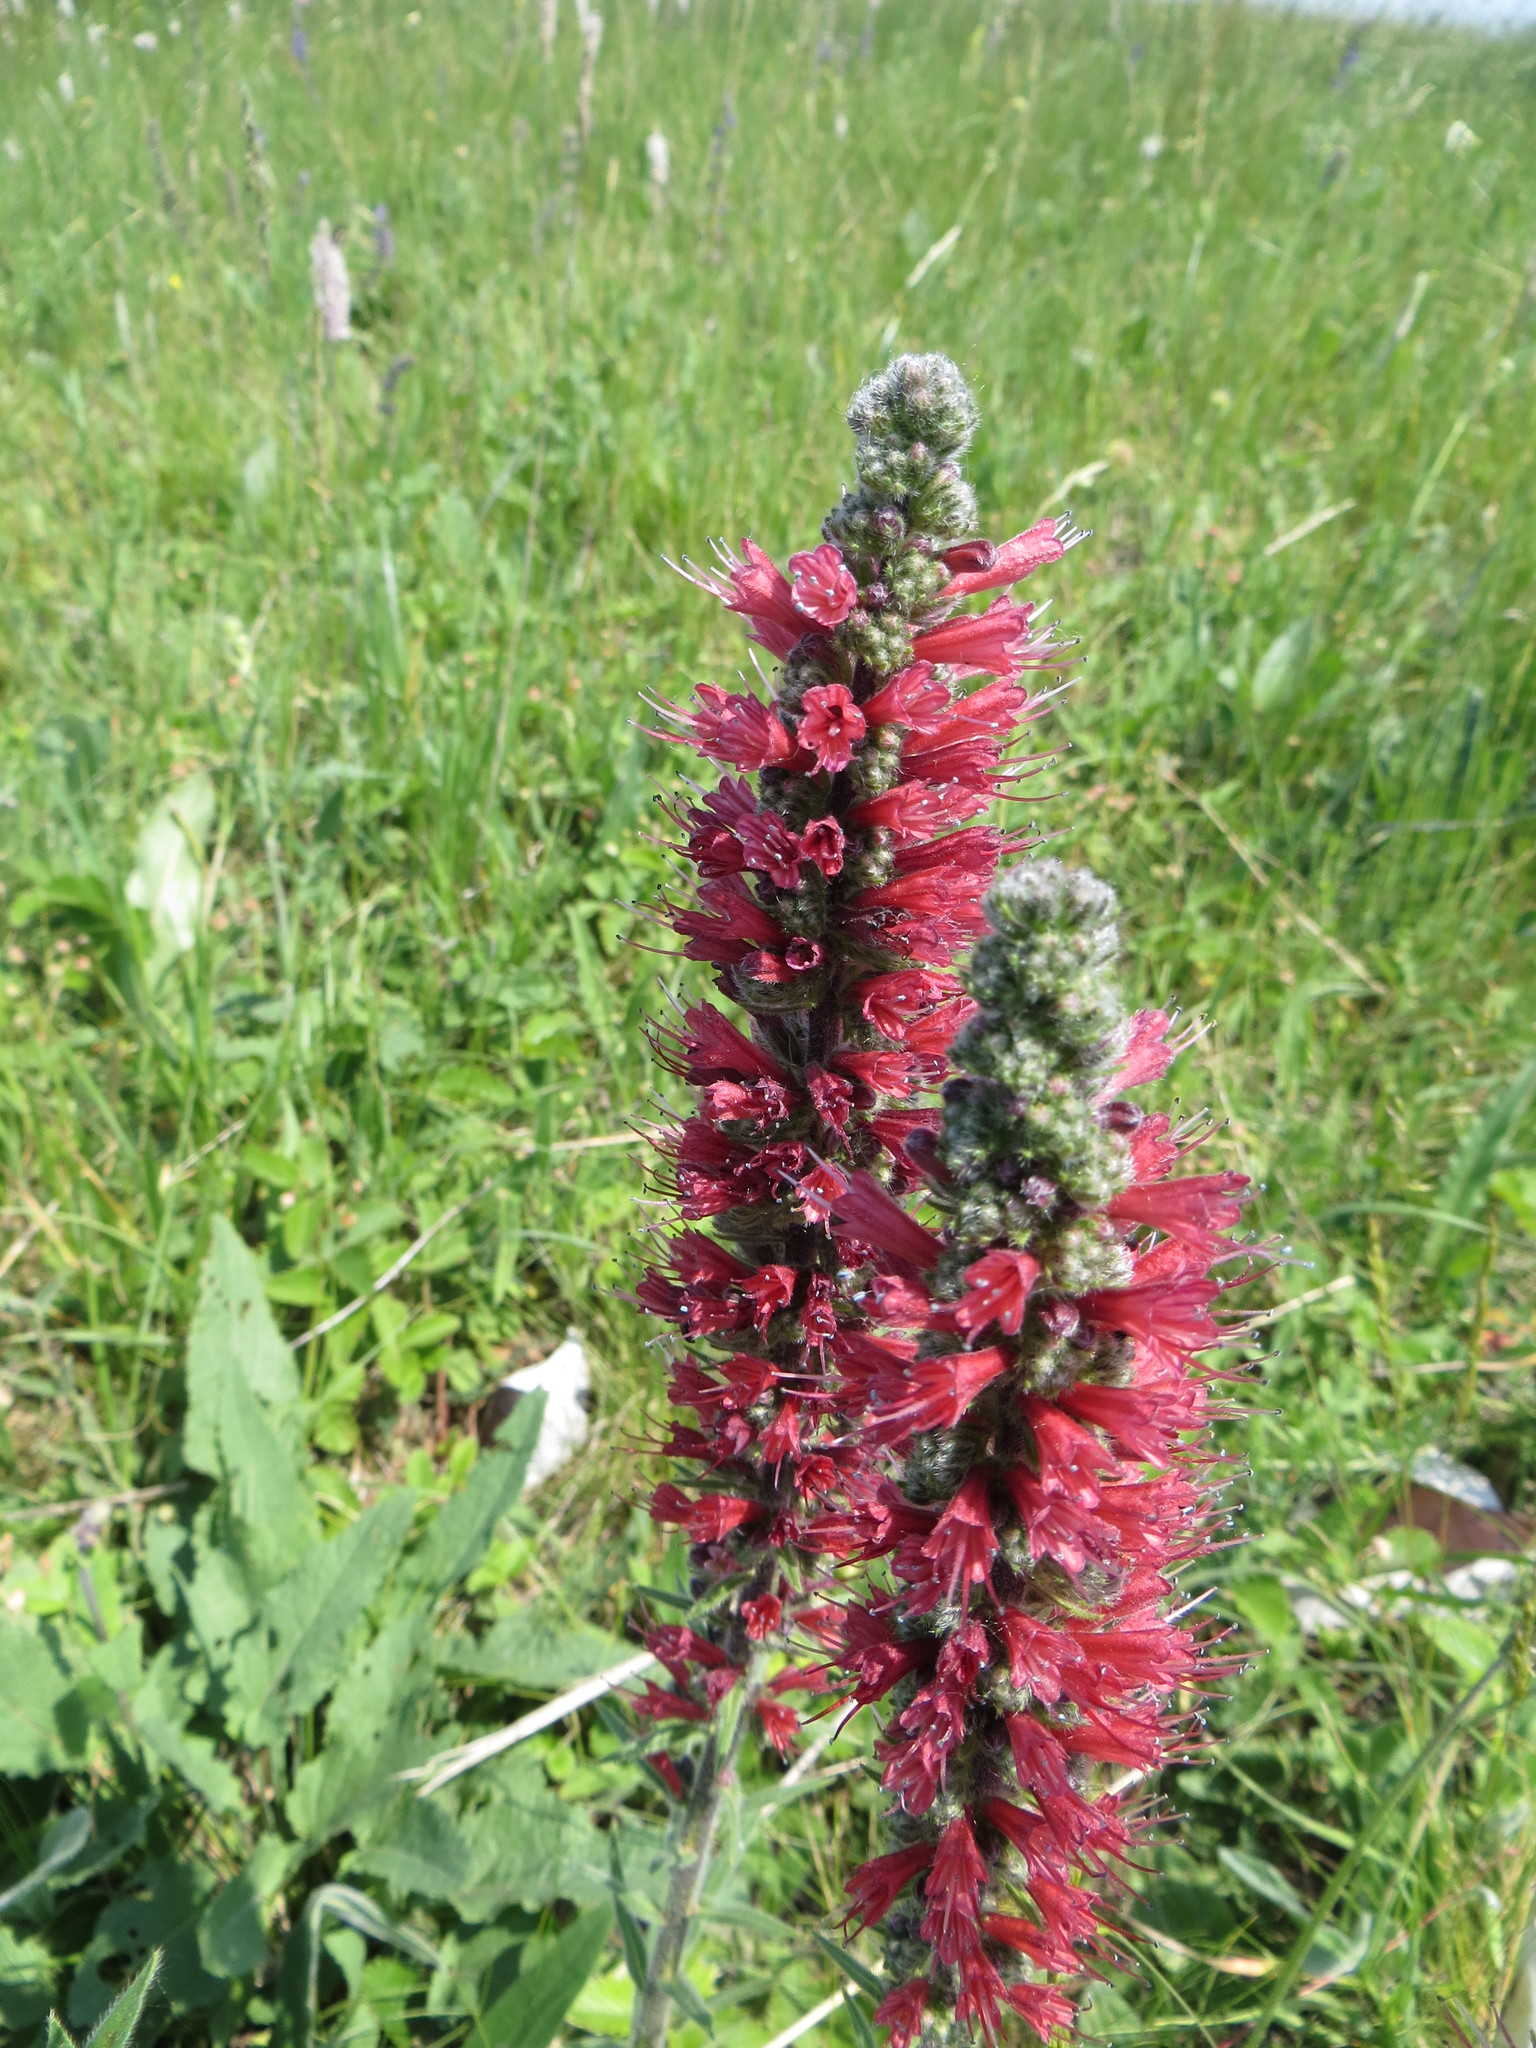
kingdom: Plantae
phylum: Tracheophyta
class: Magnoliopsida
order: Boraginales
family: Boraginaceae
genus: Pontechium
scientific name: Pontechium maculatum
